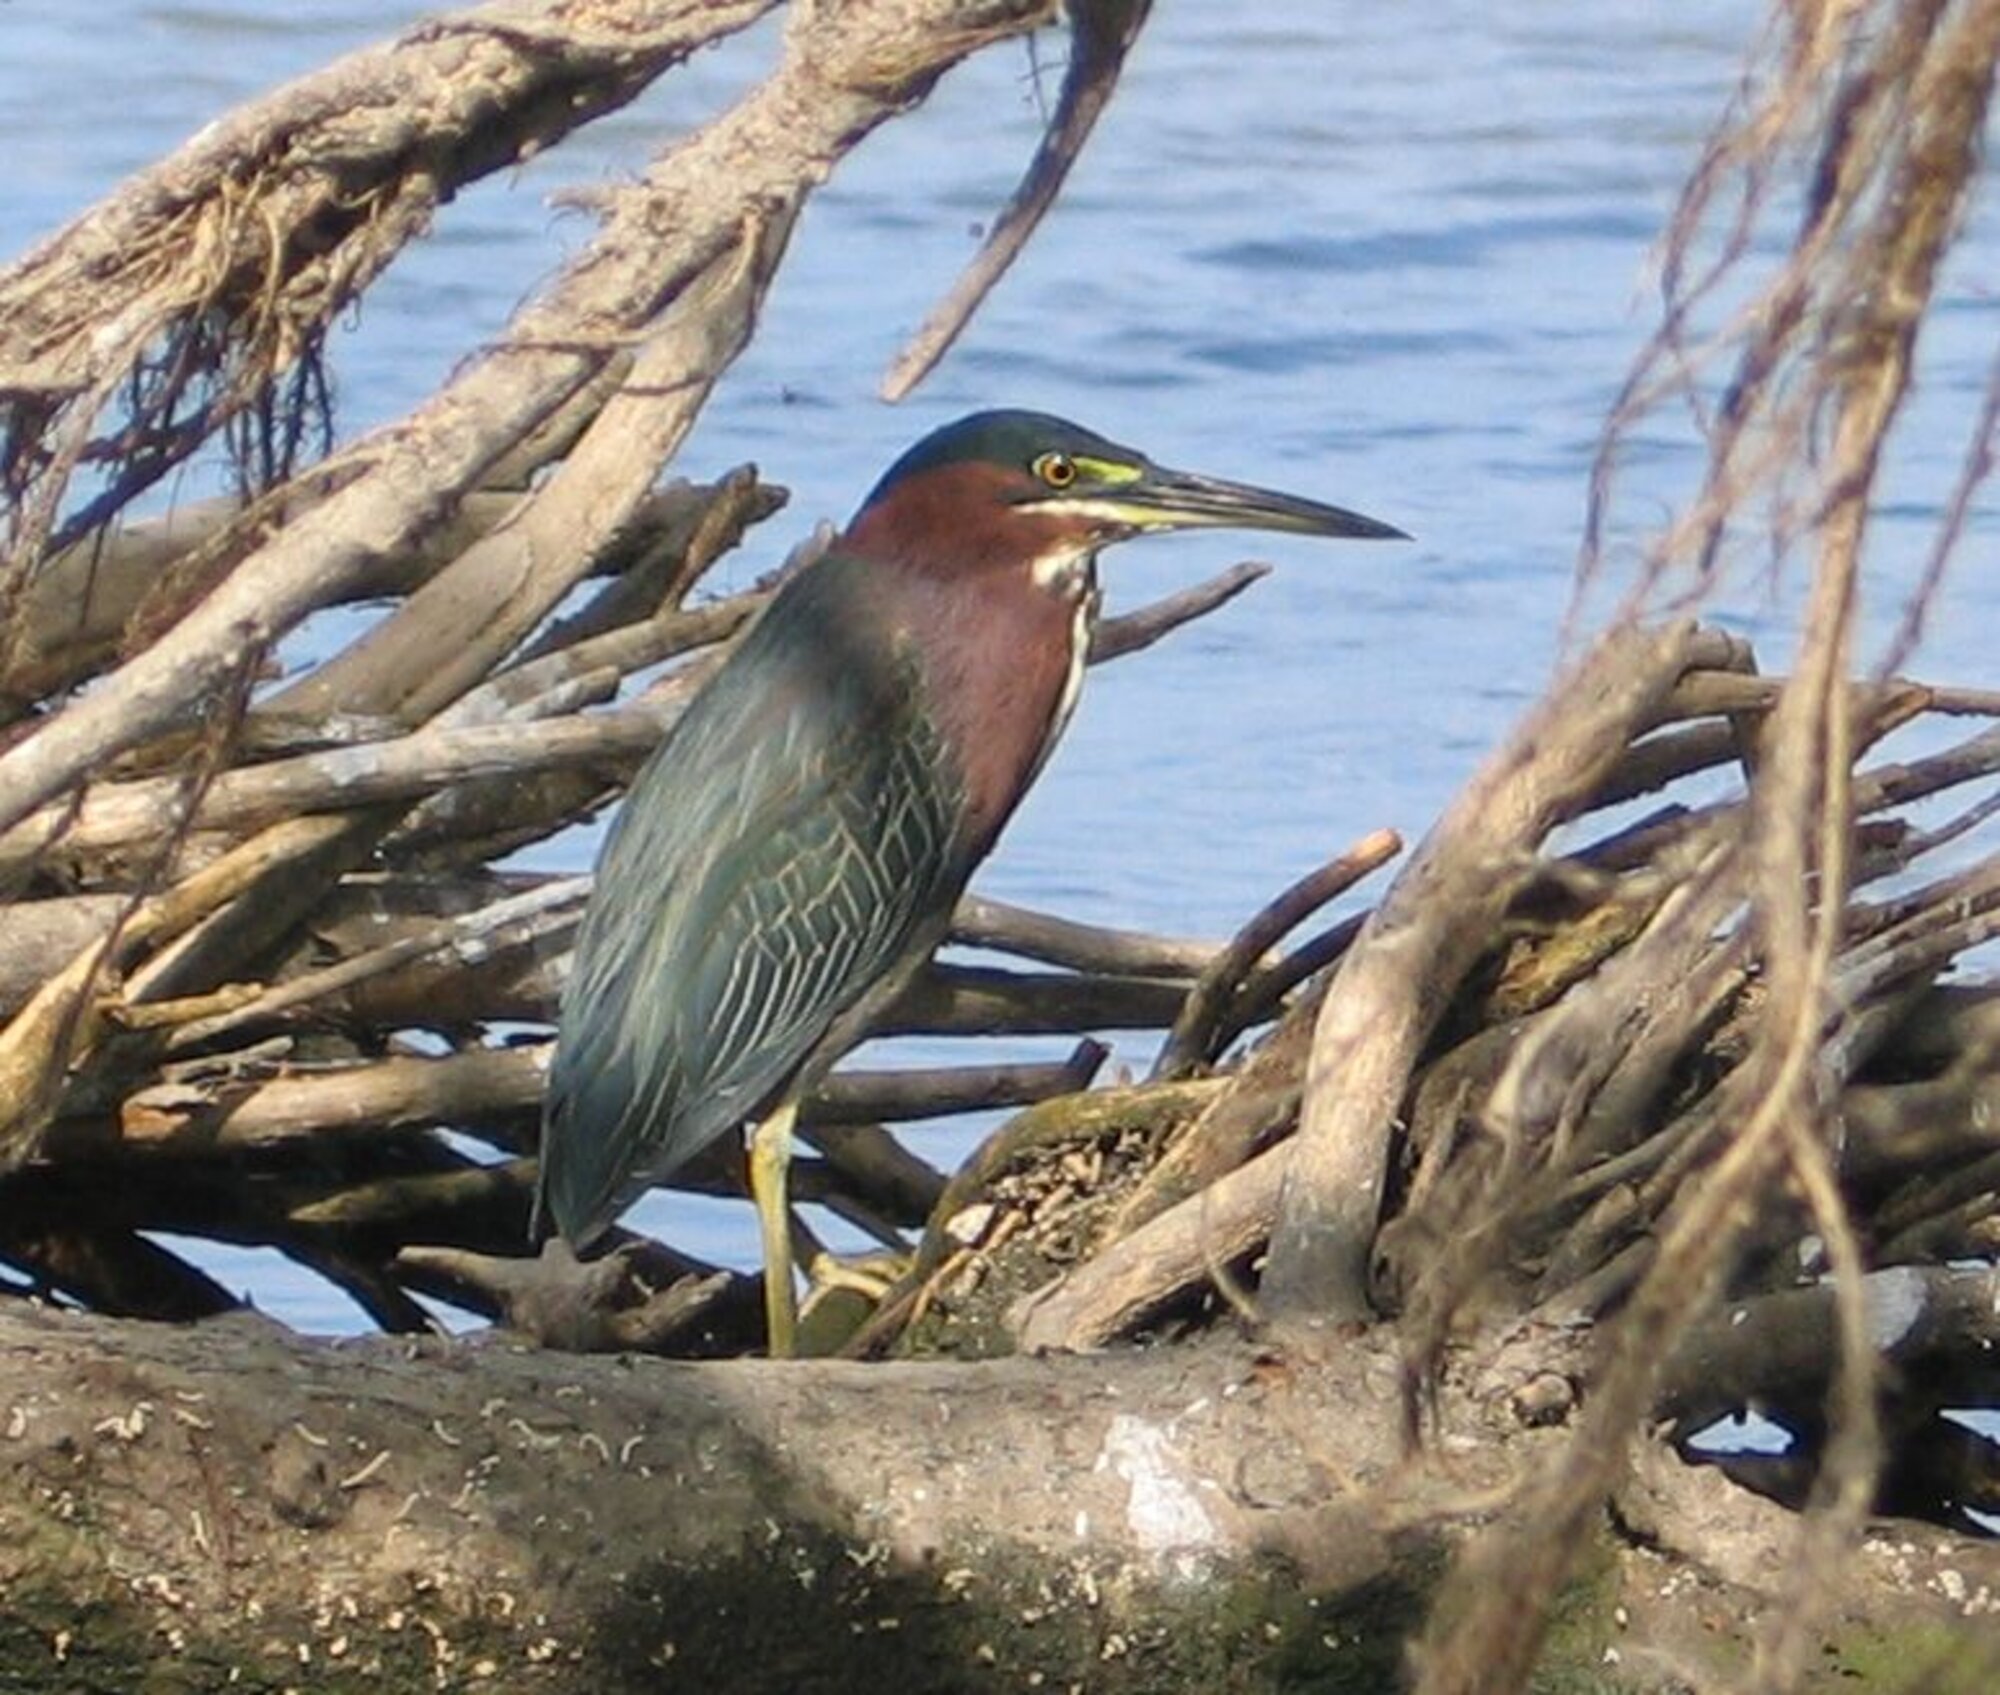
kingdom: Animalia
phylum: Chordata
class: Aves
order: Pelecaniformes
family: Ardeidae
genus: Butorides
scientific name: Butorides virescens
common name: Green heron
